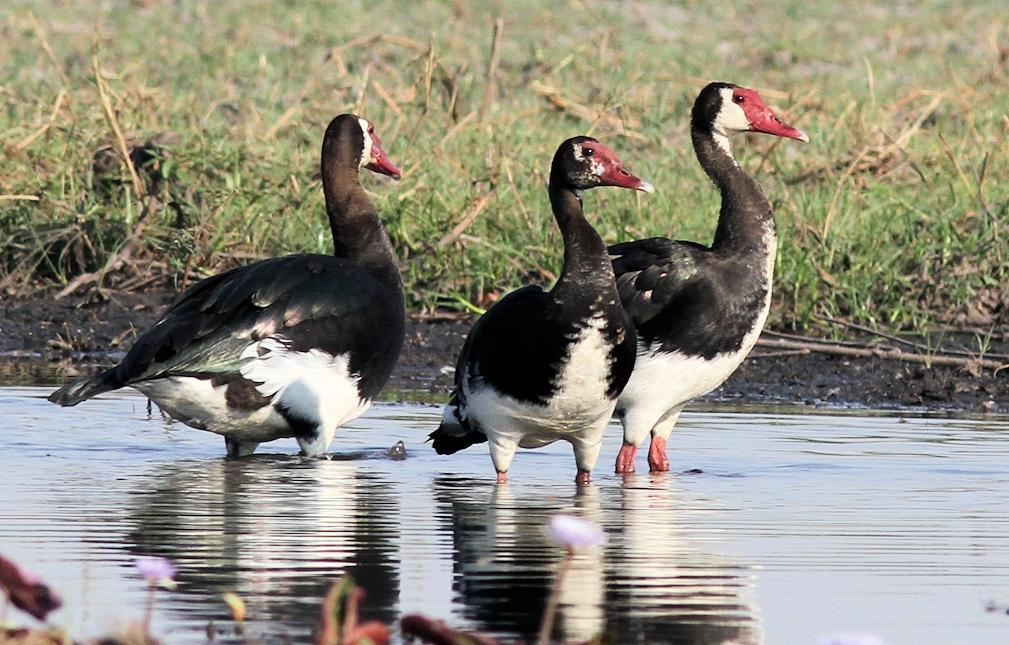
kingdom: Animalia
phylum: Chordata
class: Aves
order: Anseriformes
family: Anatidae
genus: Plectropterus
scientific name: Plectropterus gambensis
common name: Spur-winged goose
